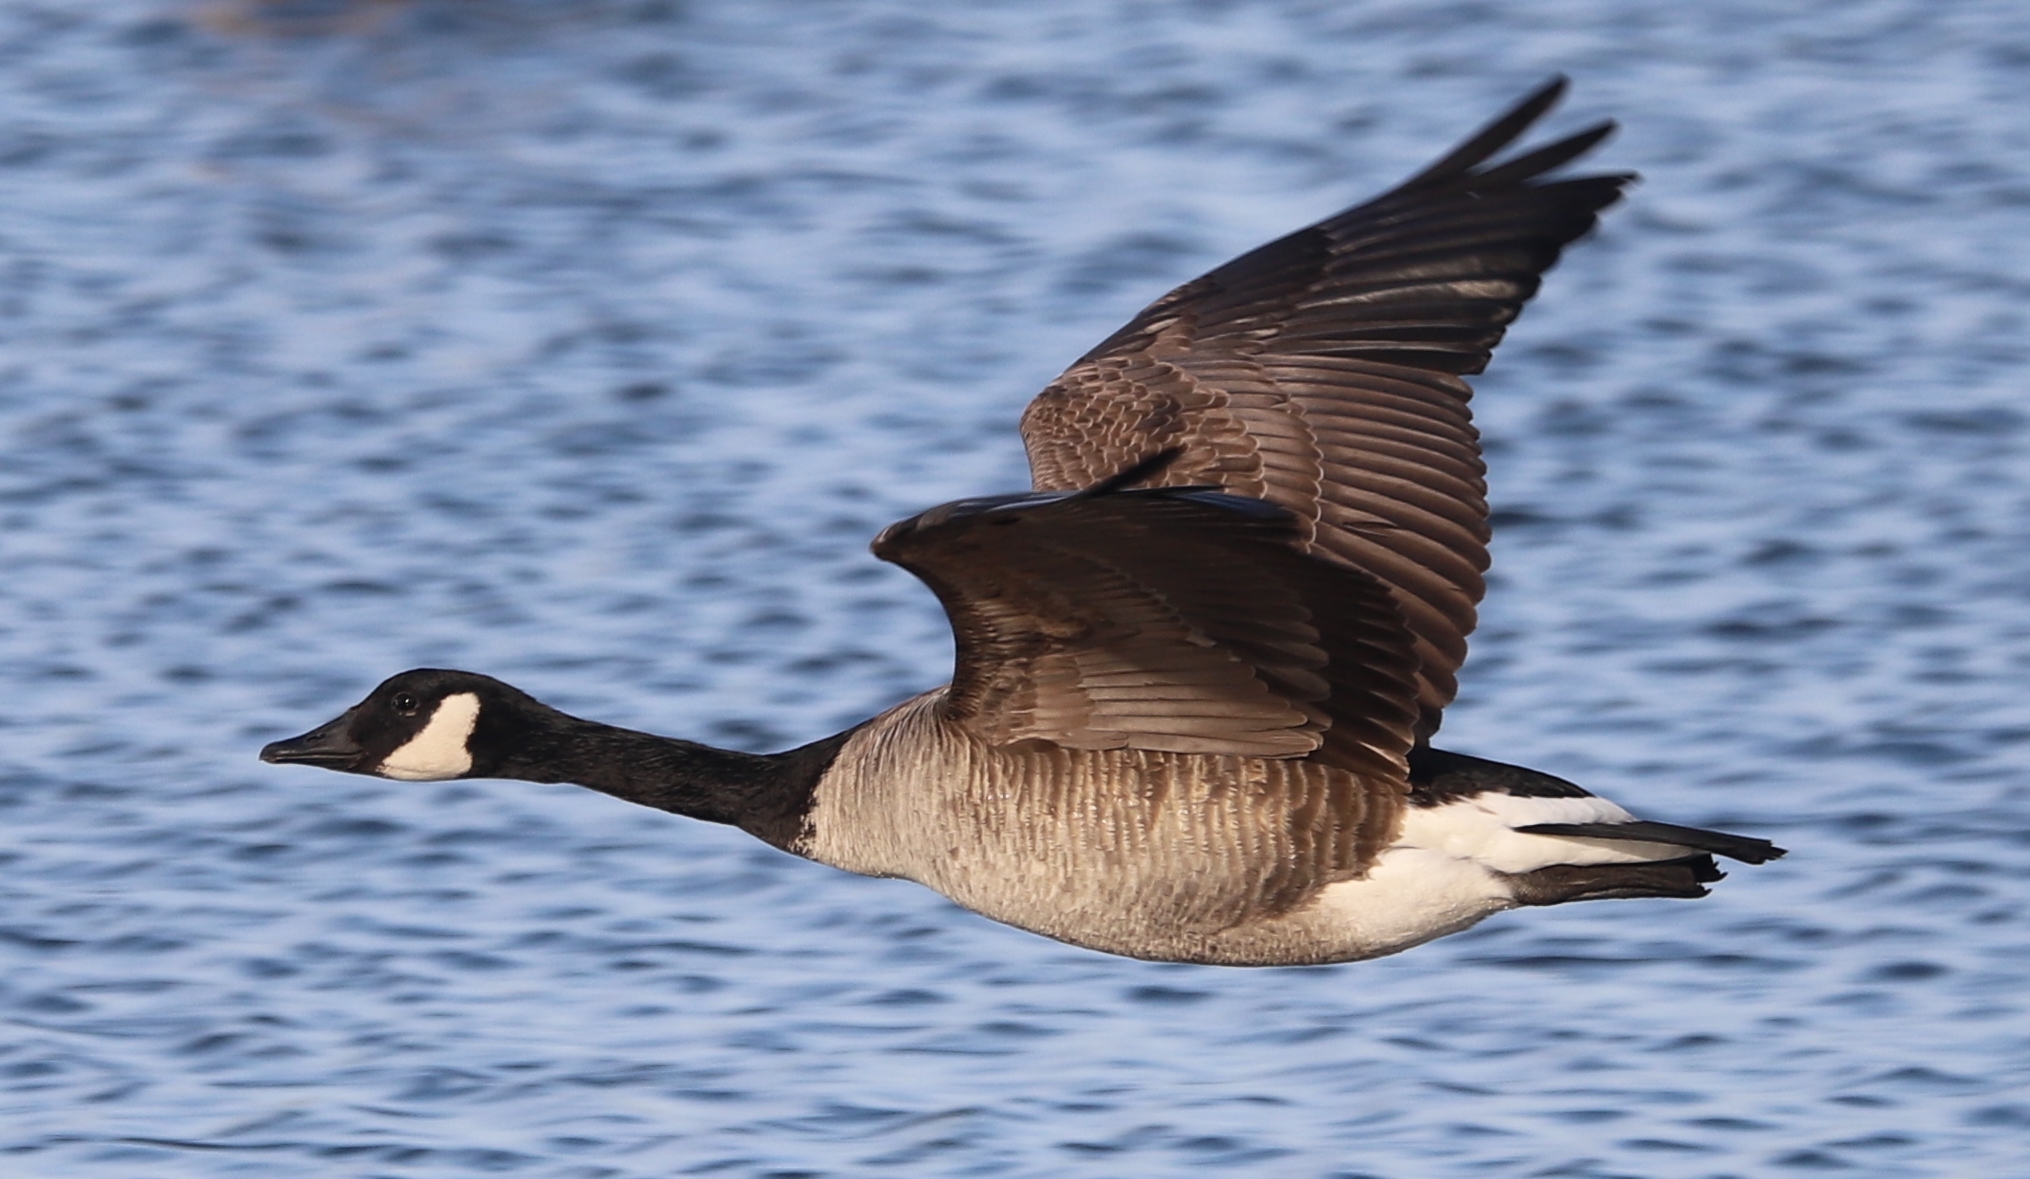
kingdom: Animalia
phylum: Chordata
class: Aves
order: Anseriformes
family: Anatidae
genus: Branta
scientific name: Branta canadensis
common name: Canada goose
